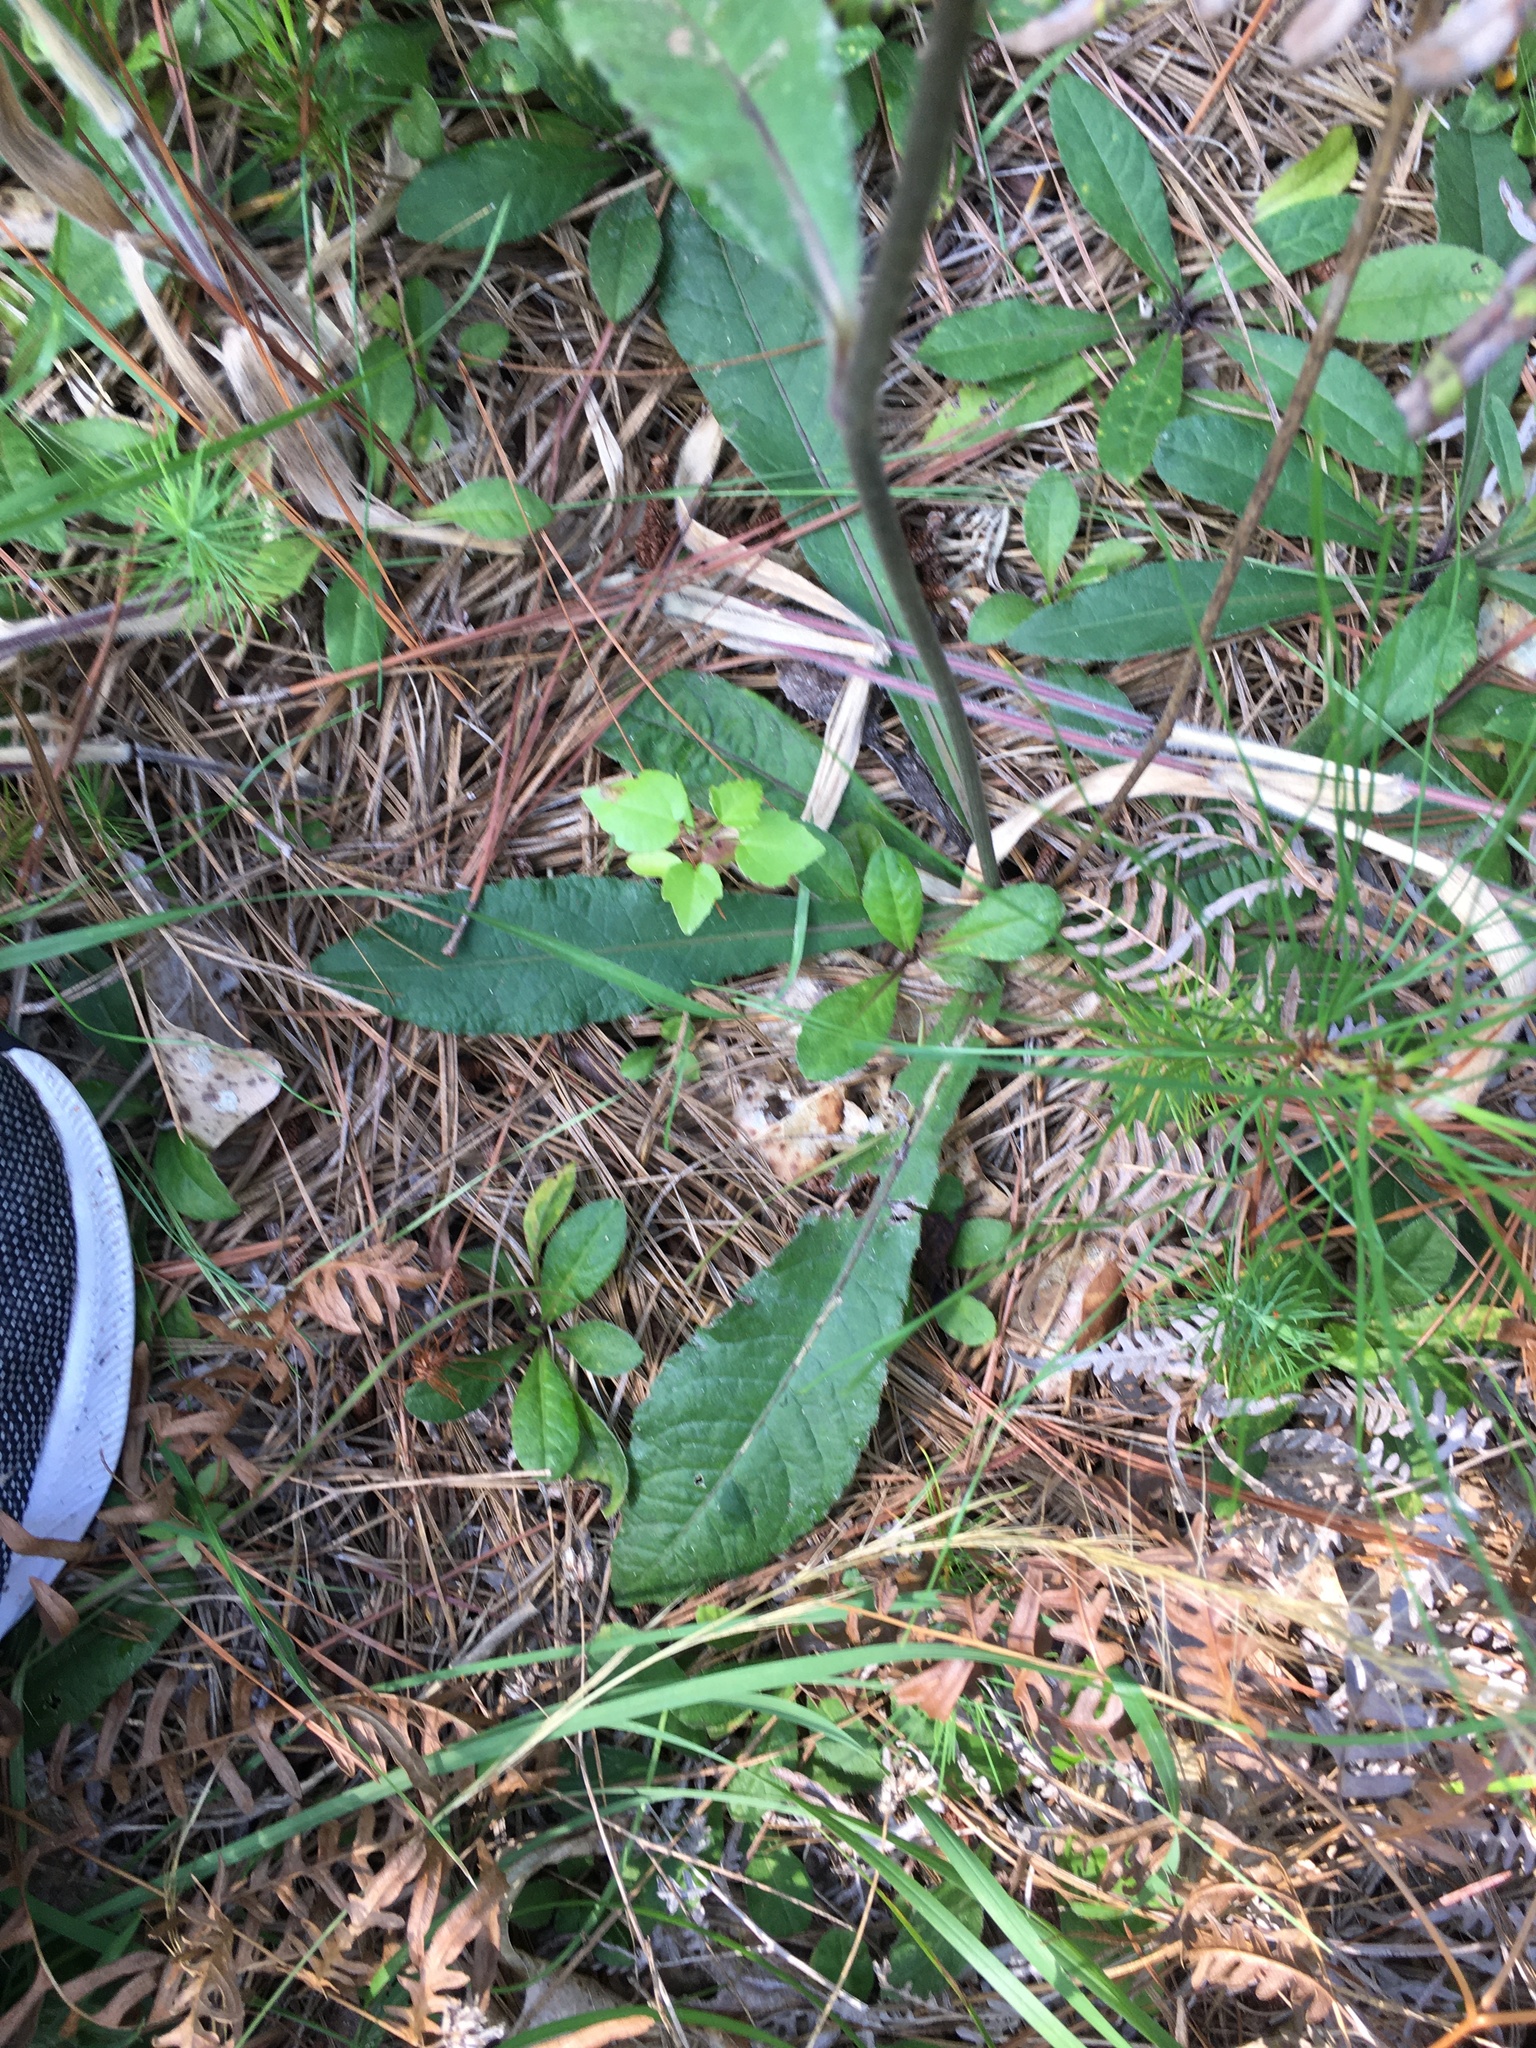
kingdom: Plantae
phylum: Tracheophyta
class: Magnoliopsida
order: Asterales
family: Asteraceae
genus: Elephantopus
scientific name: Elephantopus tomentosus
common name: Tobacco-weed
